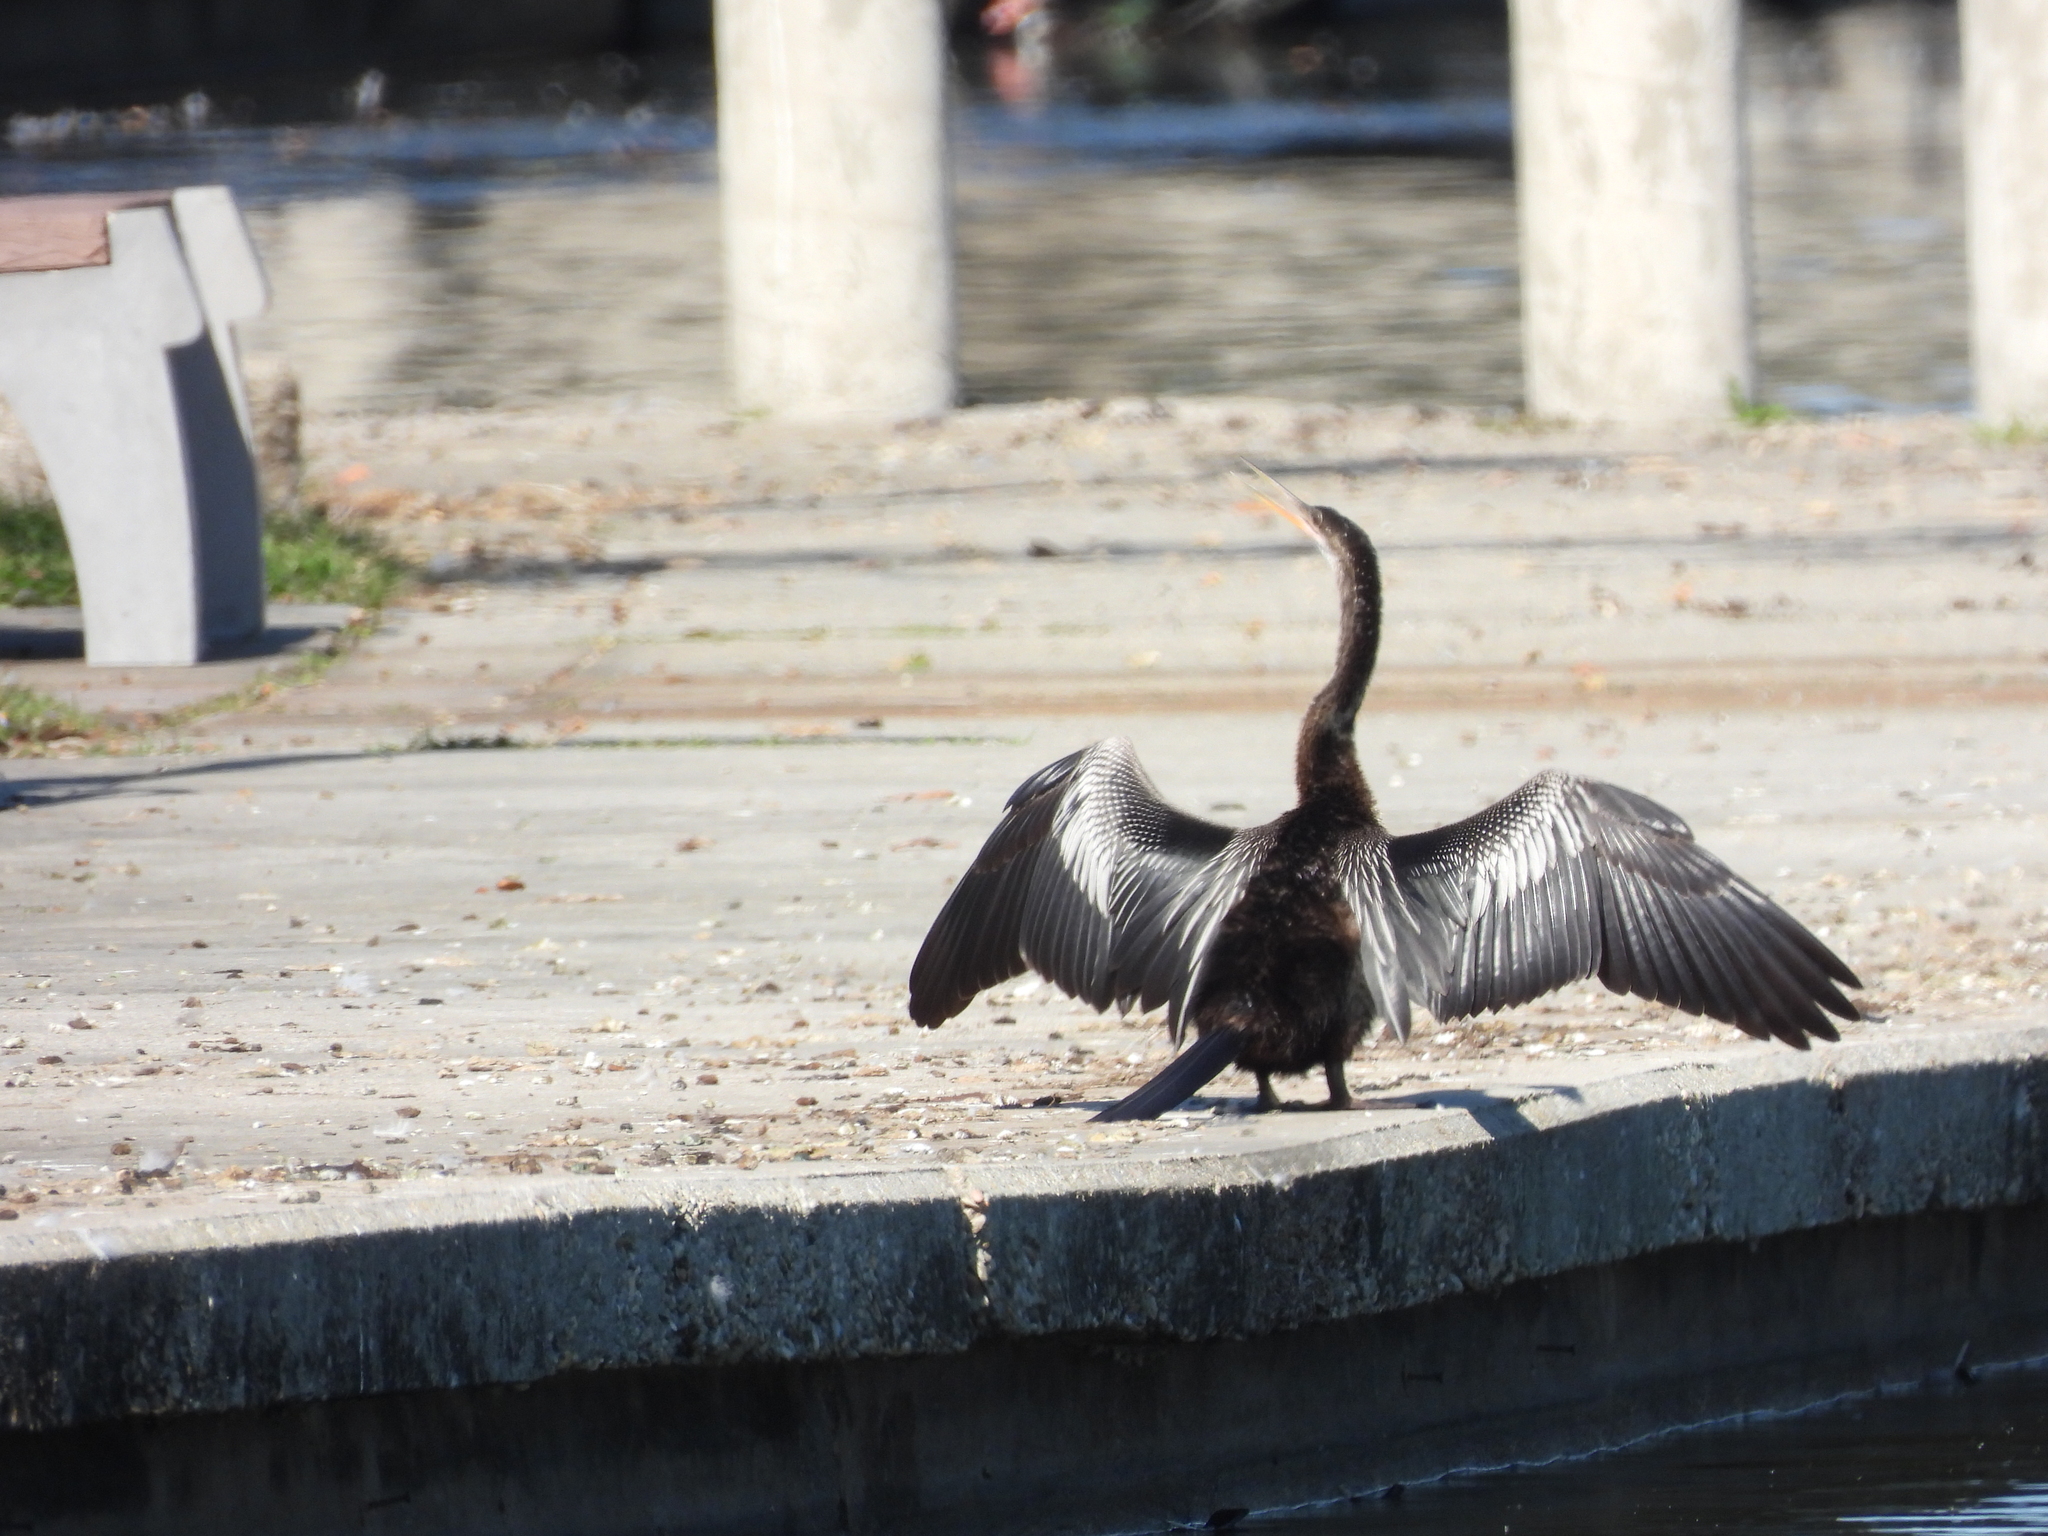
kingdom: Animalia
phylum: Chordata
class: Aves
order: Suliformes
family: Anhingidae
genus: Anhinga
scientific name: Anhinga anhinga
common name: Anhinga
